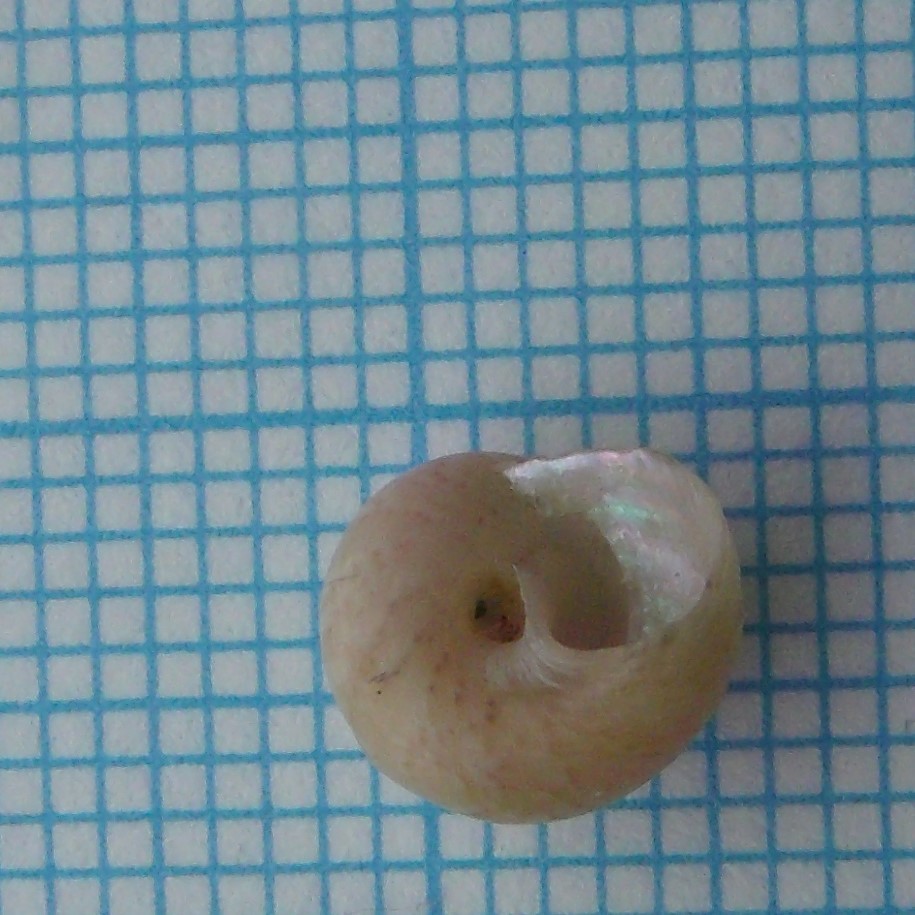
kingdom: Animalia
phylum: Mollusca
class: Gastropoda
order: Trochida
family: Trochidae
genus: Micrelenchus
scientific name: Micrelenchus tessellatus
